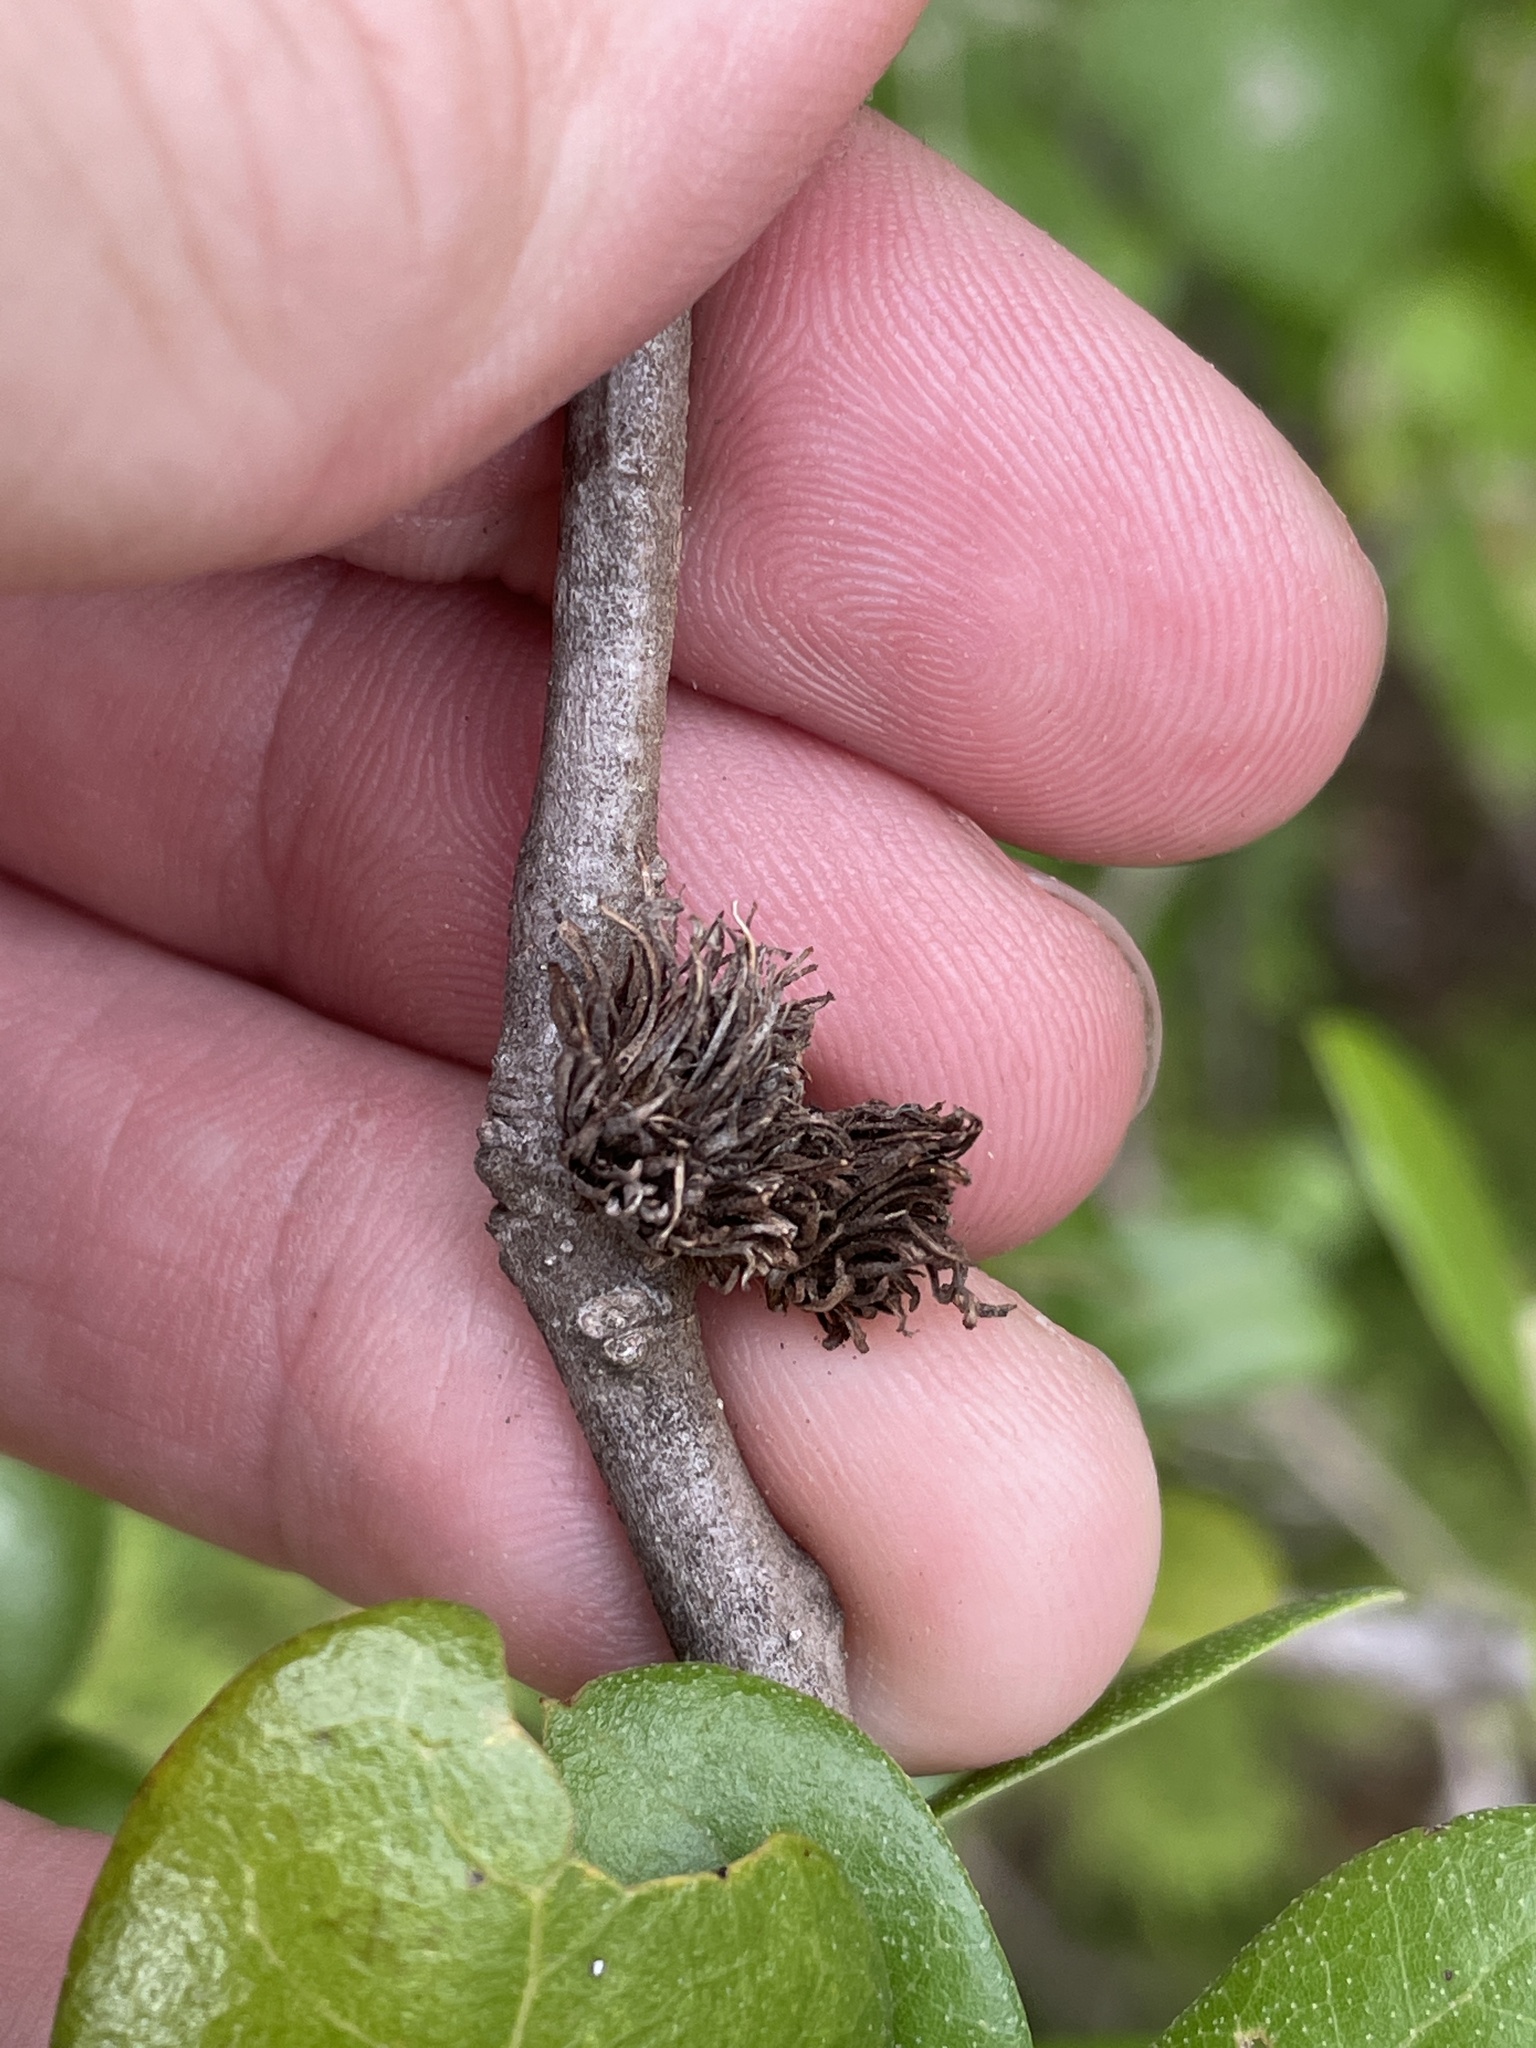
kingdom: Animalia
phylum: Arthropoda
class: Insecta
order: Hymenoptera
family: Cynipidae
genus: Andricus
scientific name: Andricus quercusfoliatus
